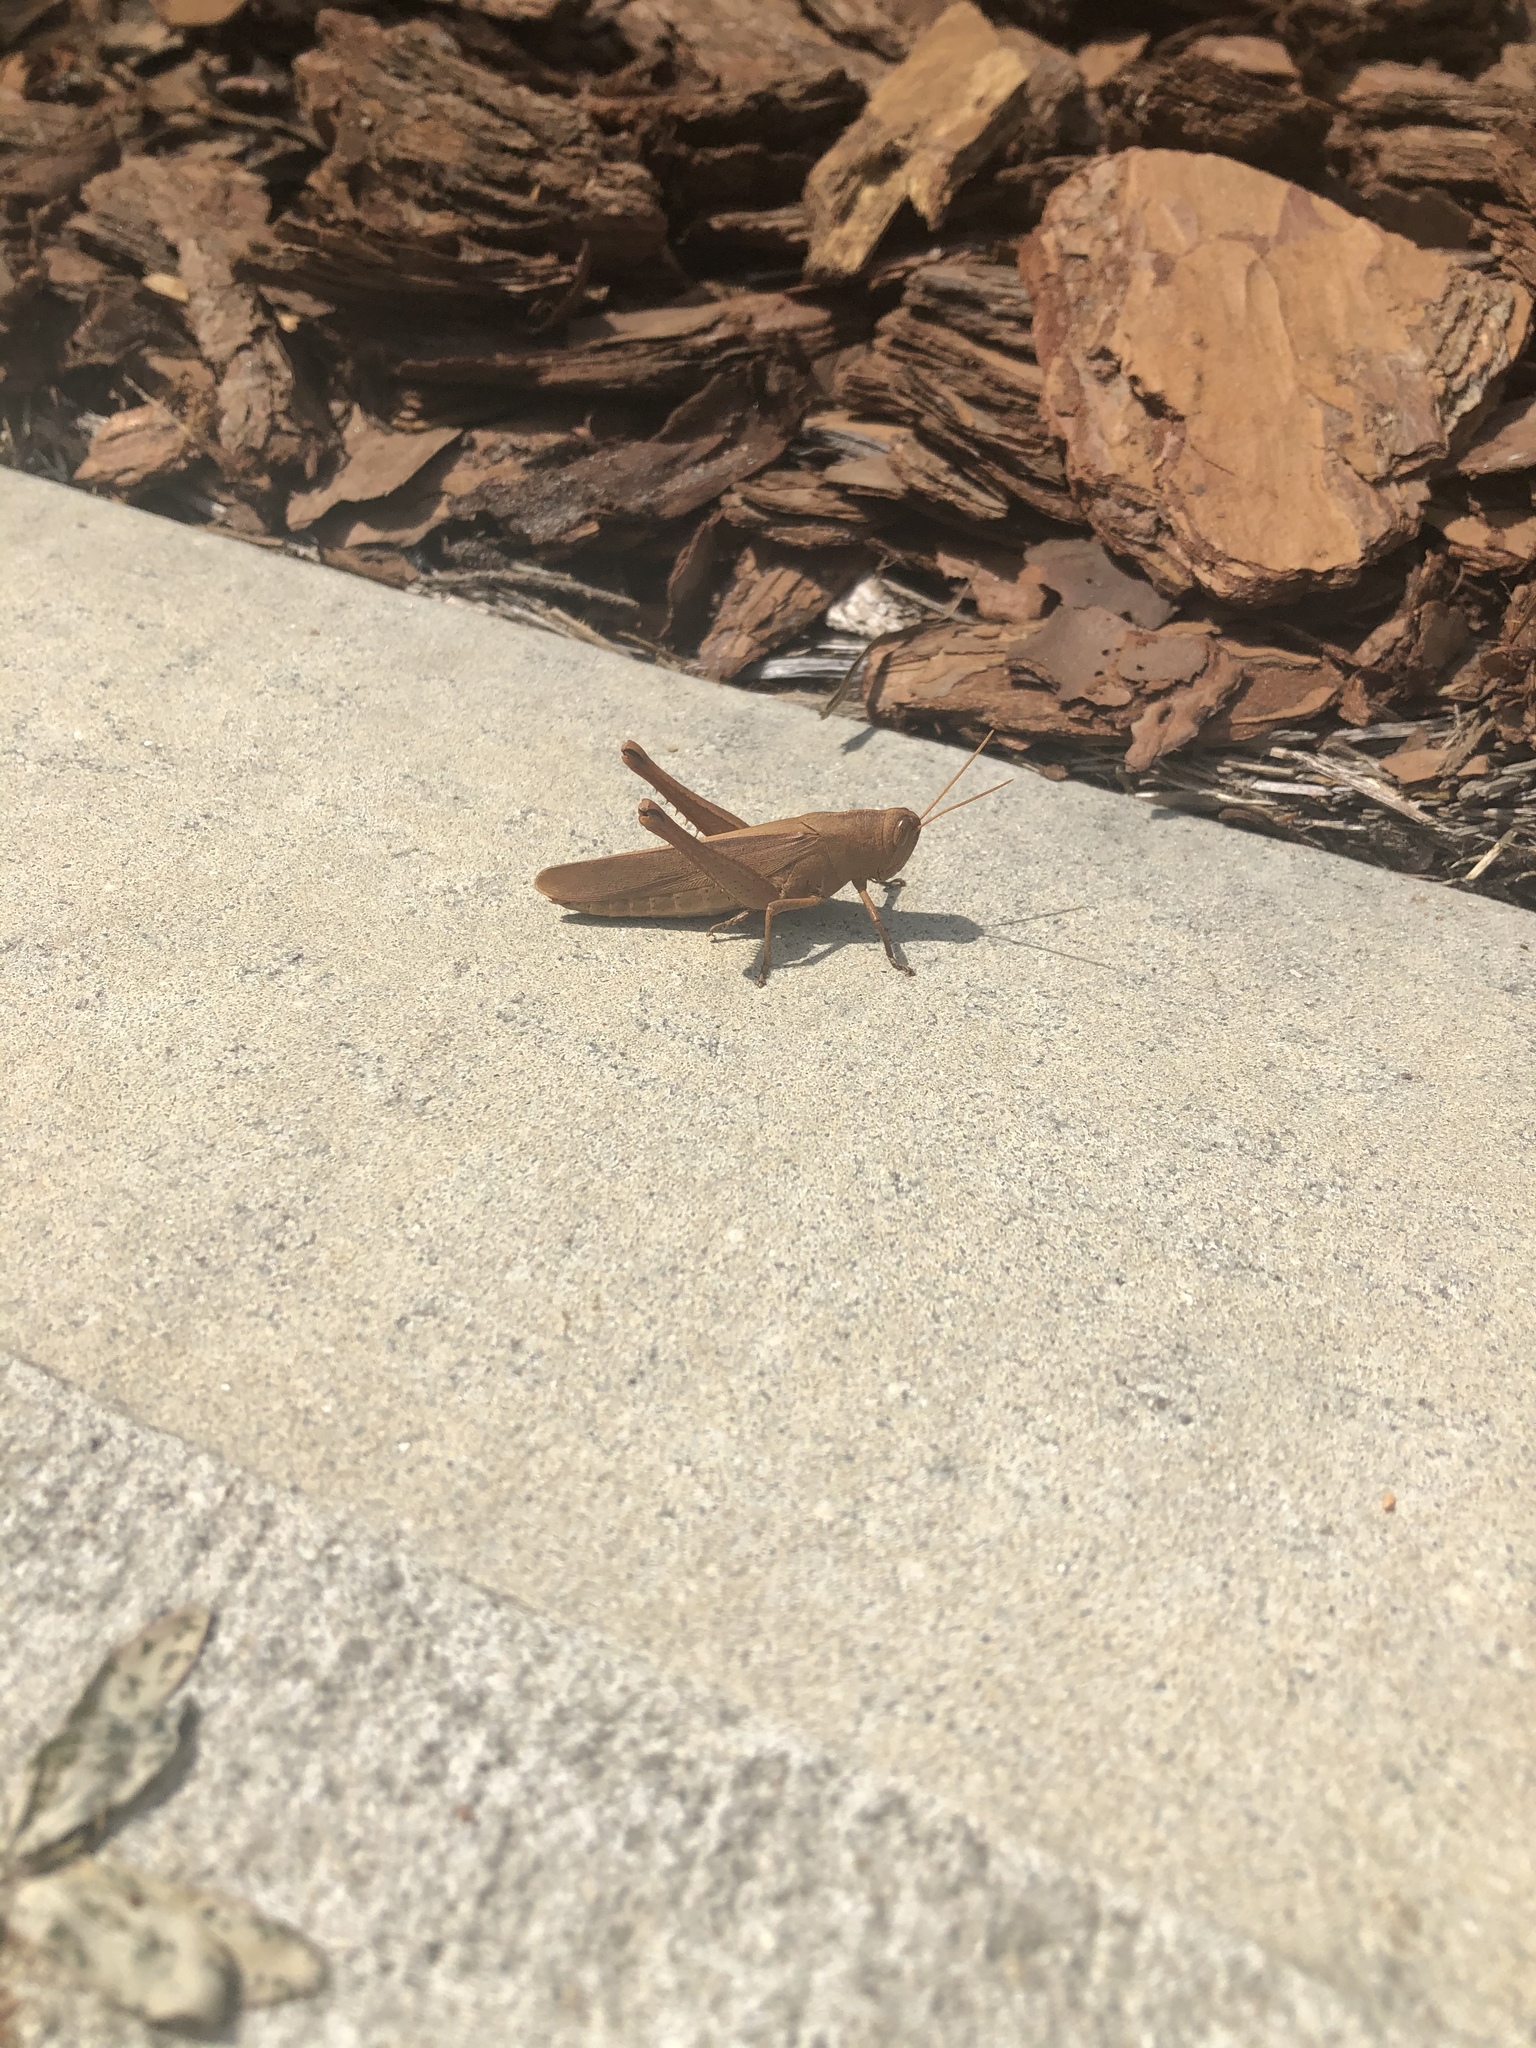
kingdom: Animalia
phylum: Arthropoda
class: Insecta
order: Orthoptera
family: Acrididae
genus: Schistocerca
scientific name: Schistocerca damnifica
